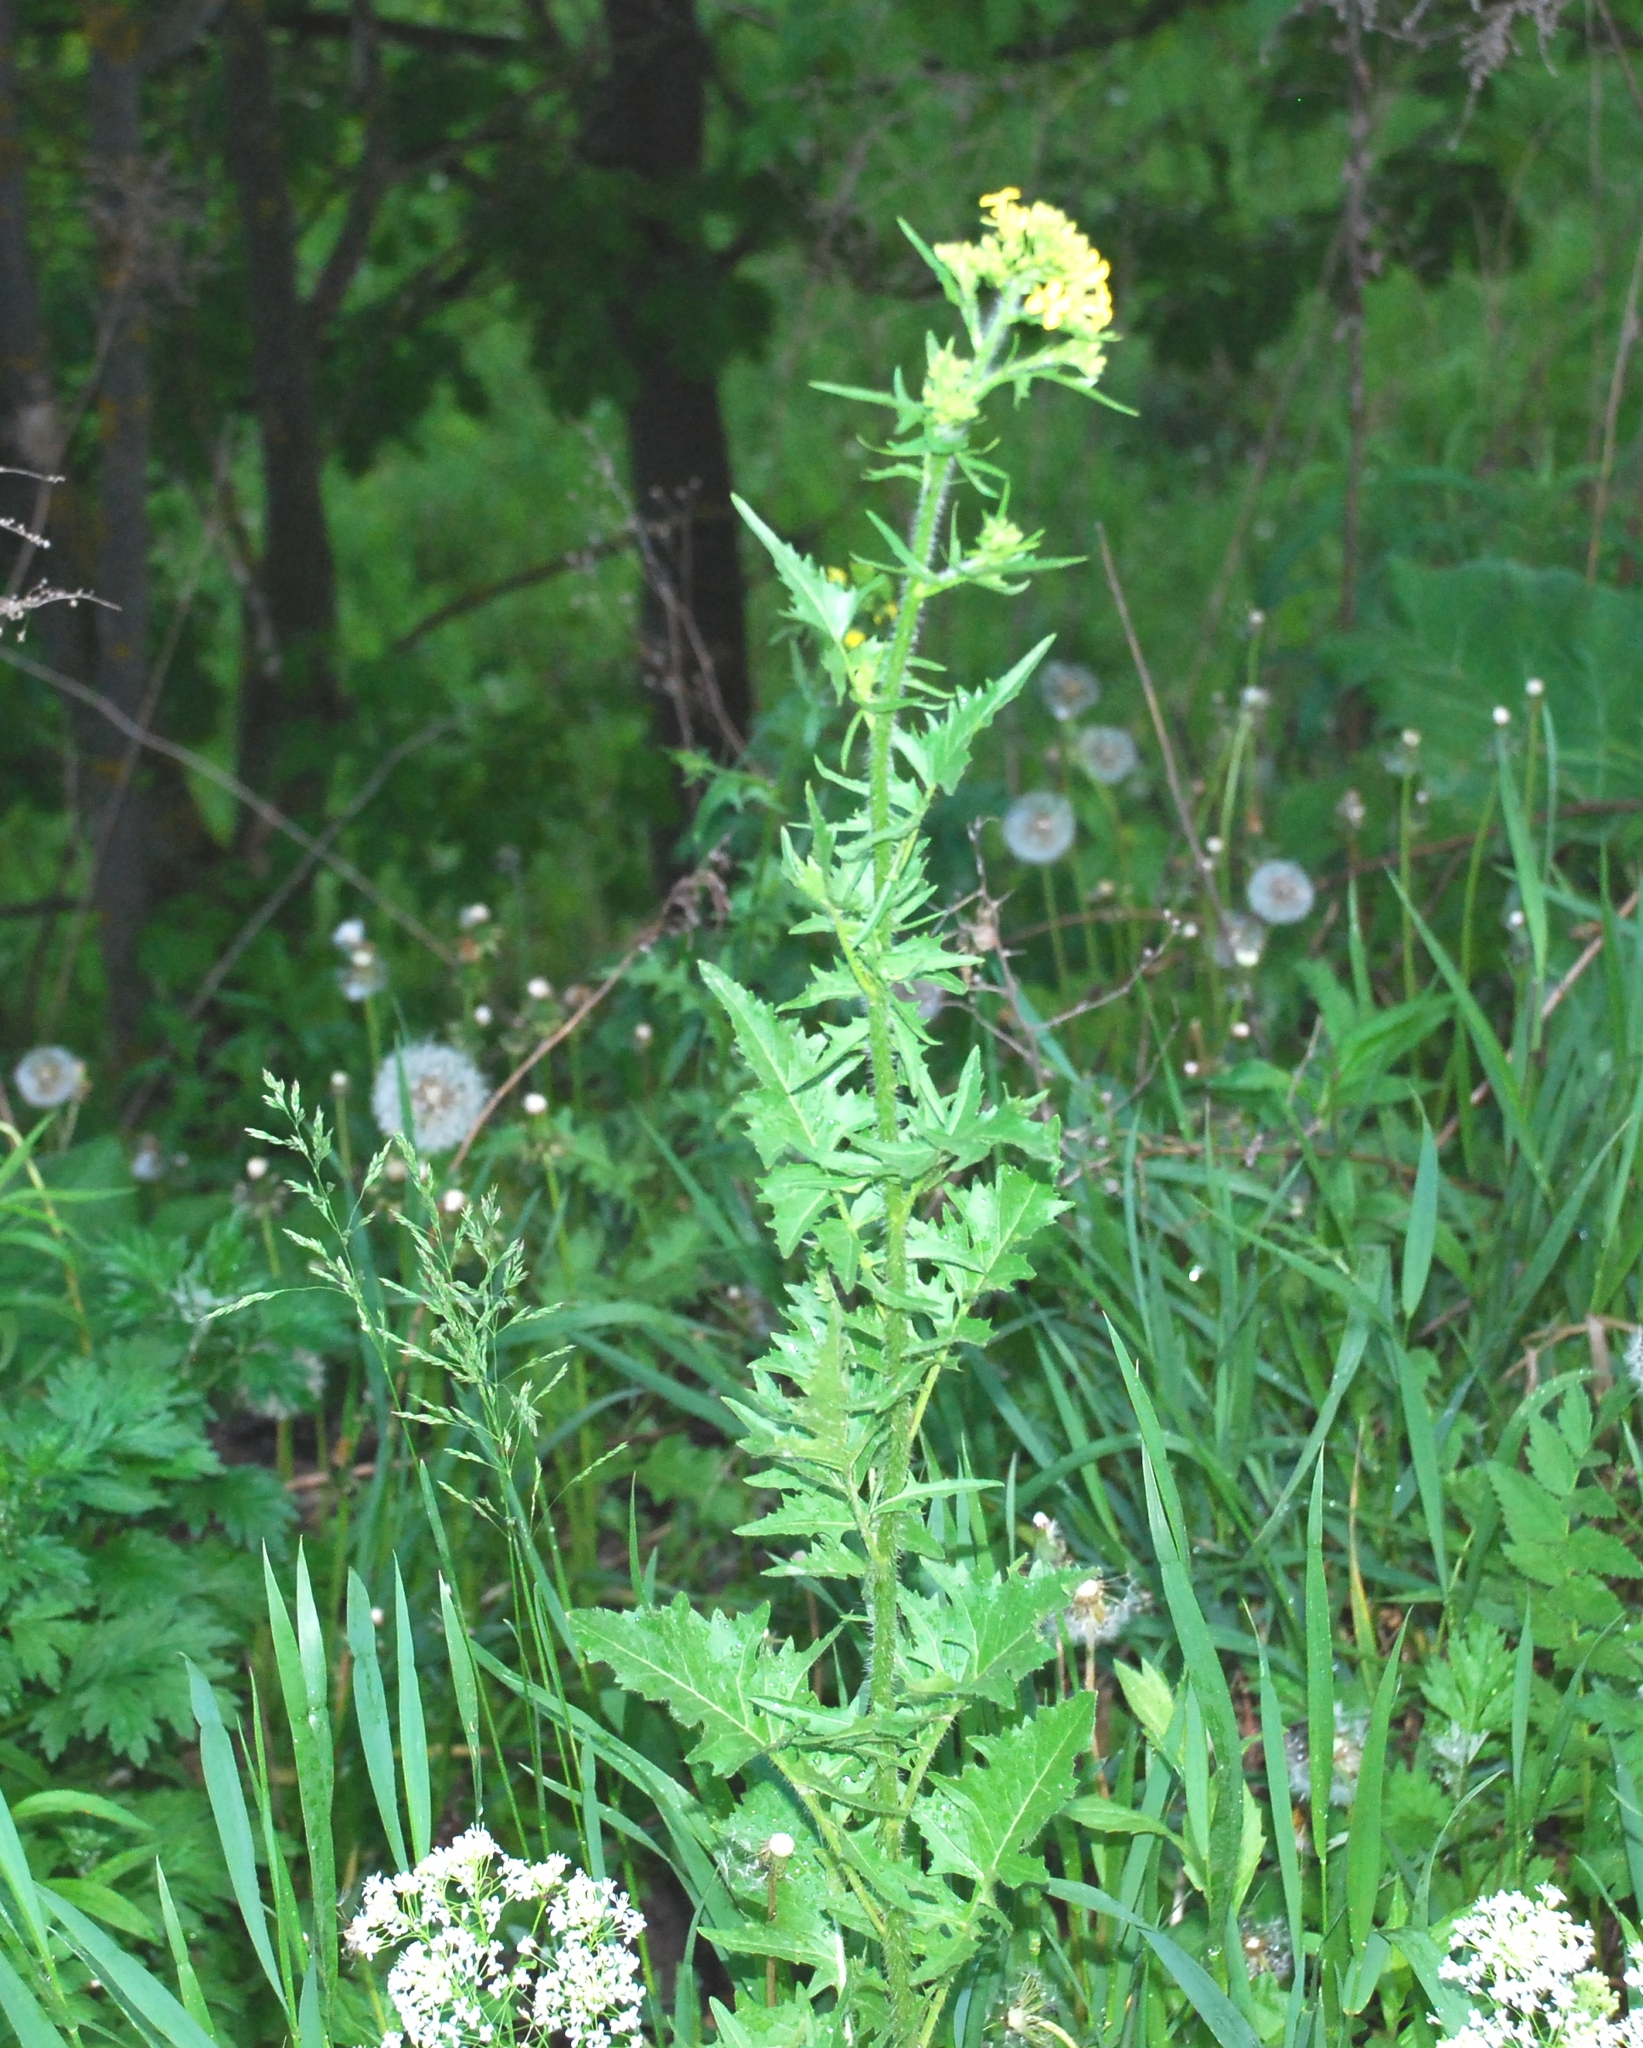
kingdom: Plantae
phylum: Tracheophyta
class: Magnoliopsida
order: Brassicales
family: Brassicaceae
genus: Sisymbrium
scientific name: Sisymbrium loeselii
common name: False london-rocket
